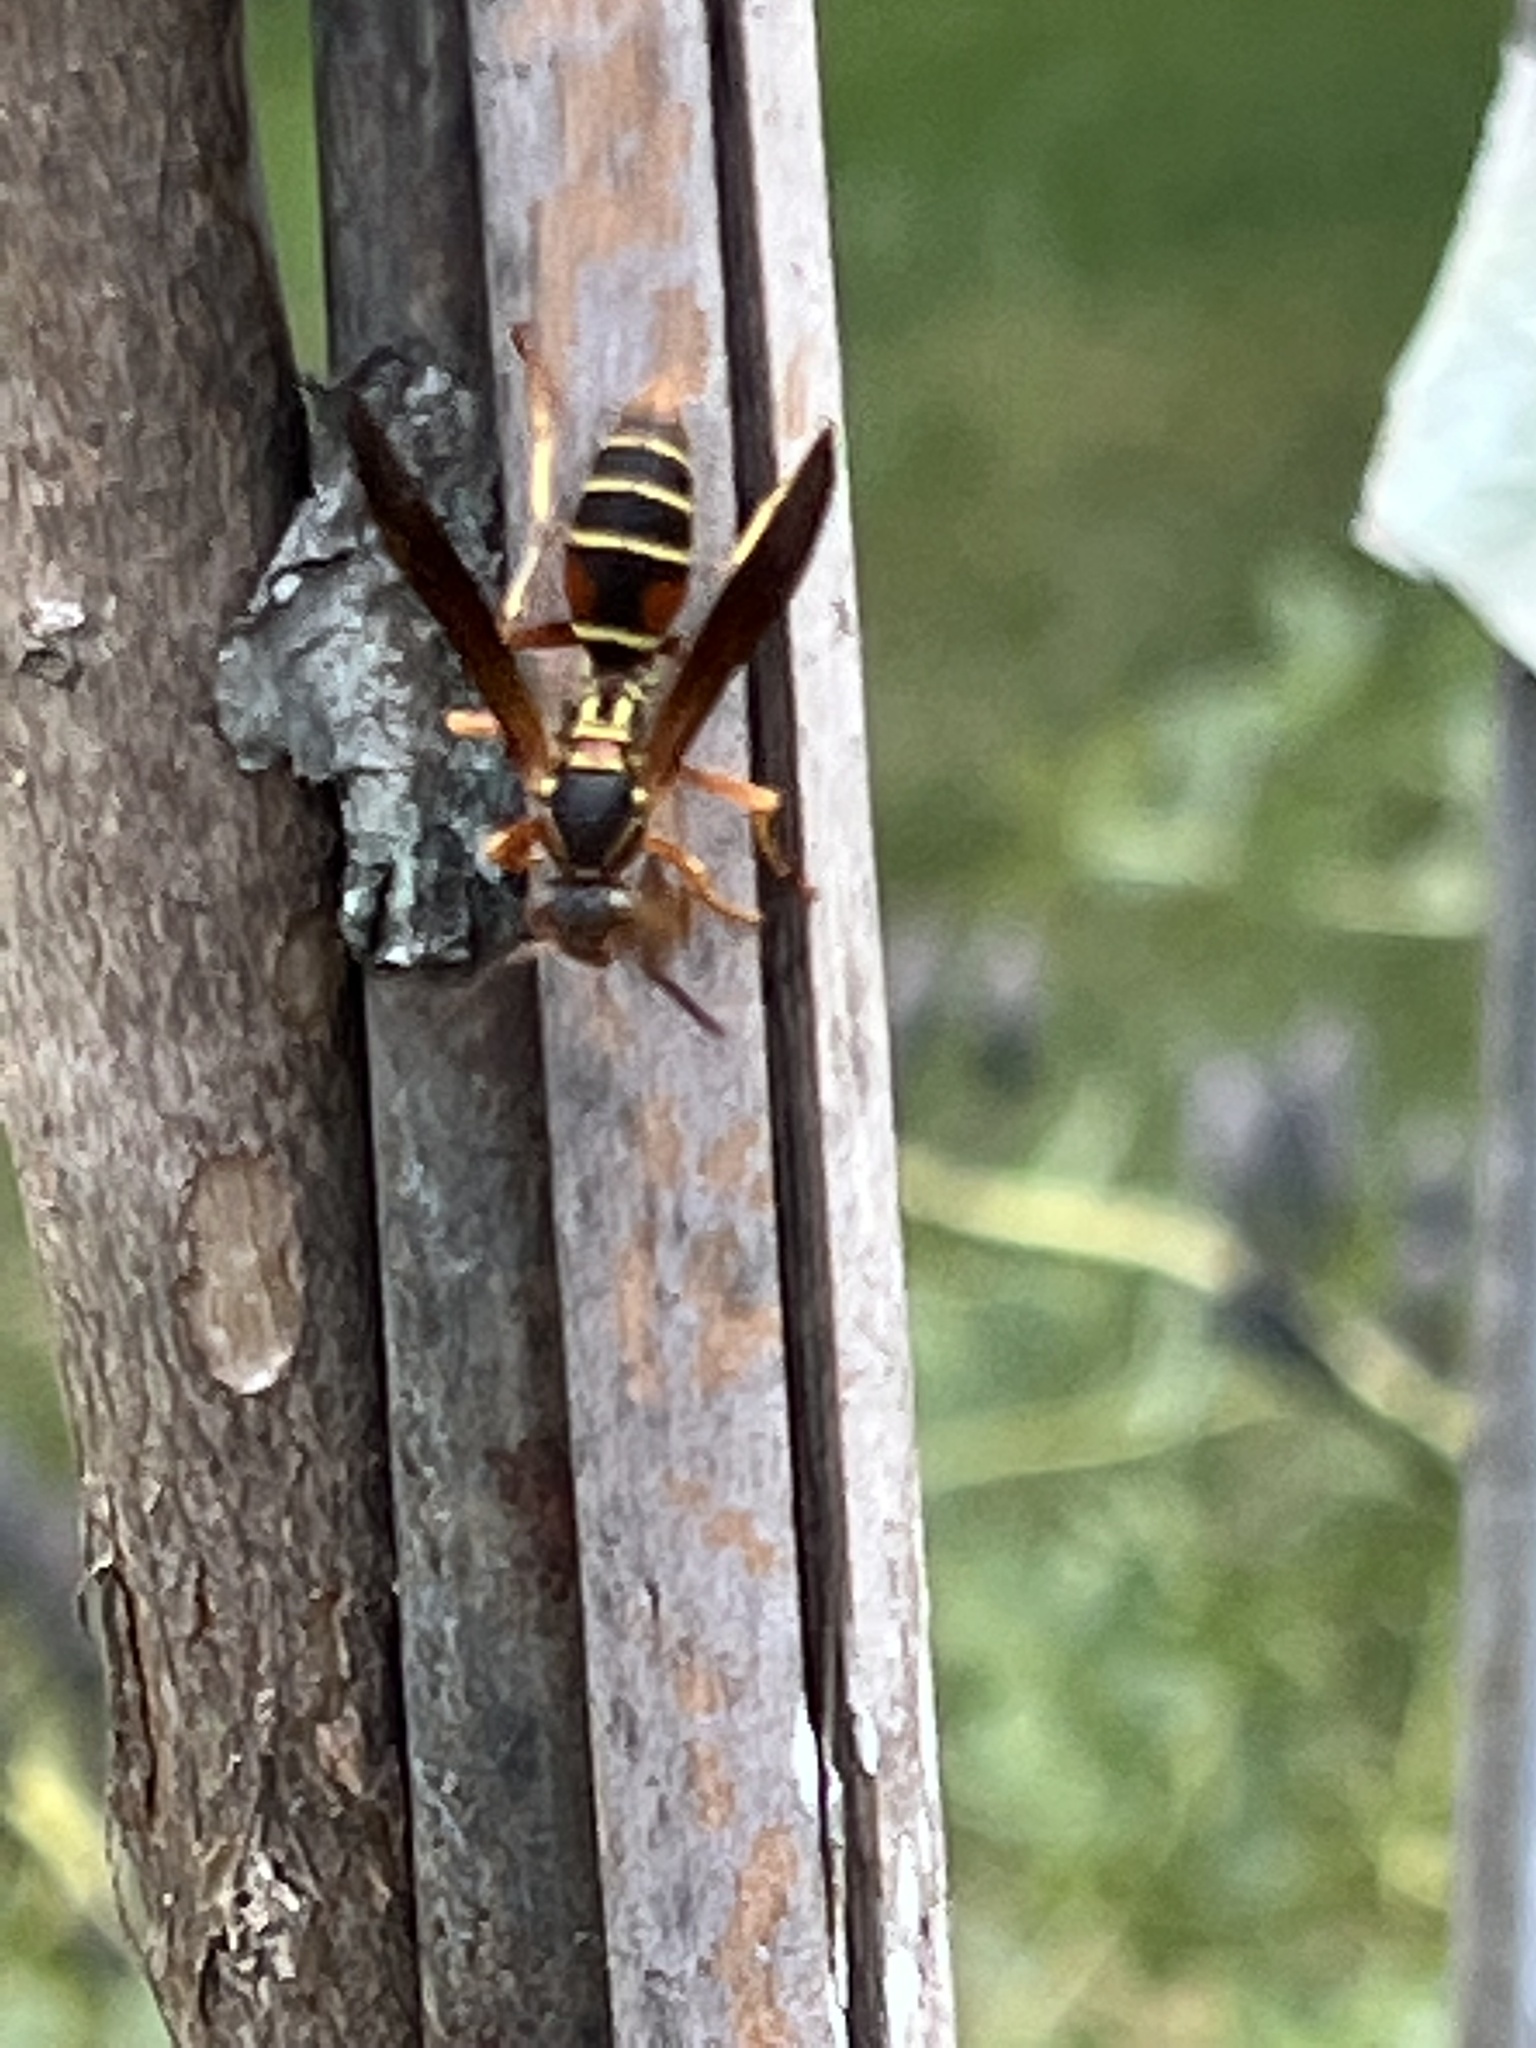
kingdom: Animalia
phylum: Arthropoda
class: Insecta
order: Hymenoptera
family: Eumenidae
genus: Polistes
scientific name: Polistes fuscatus
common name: Dark paper wasp
